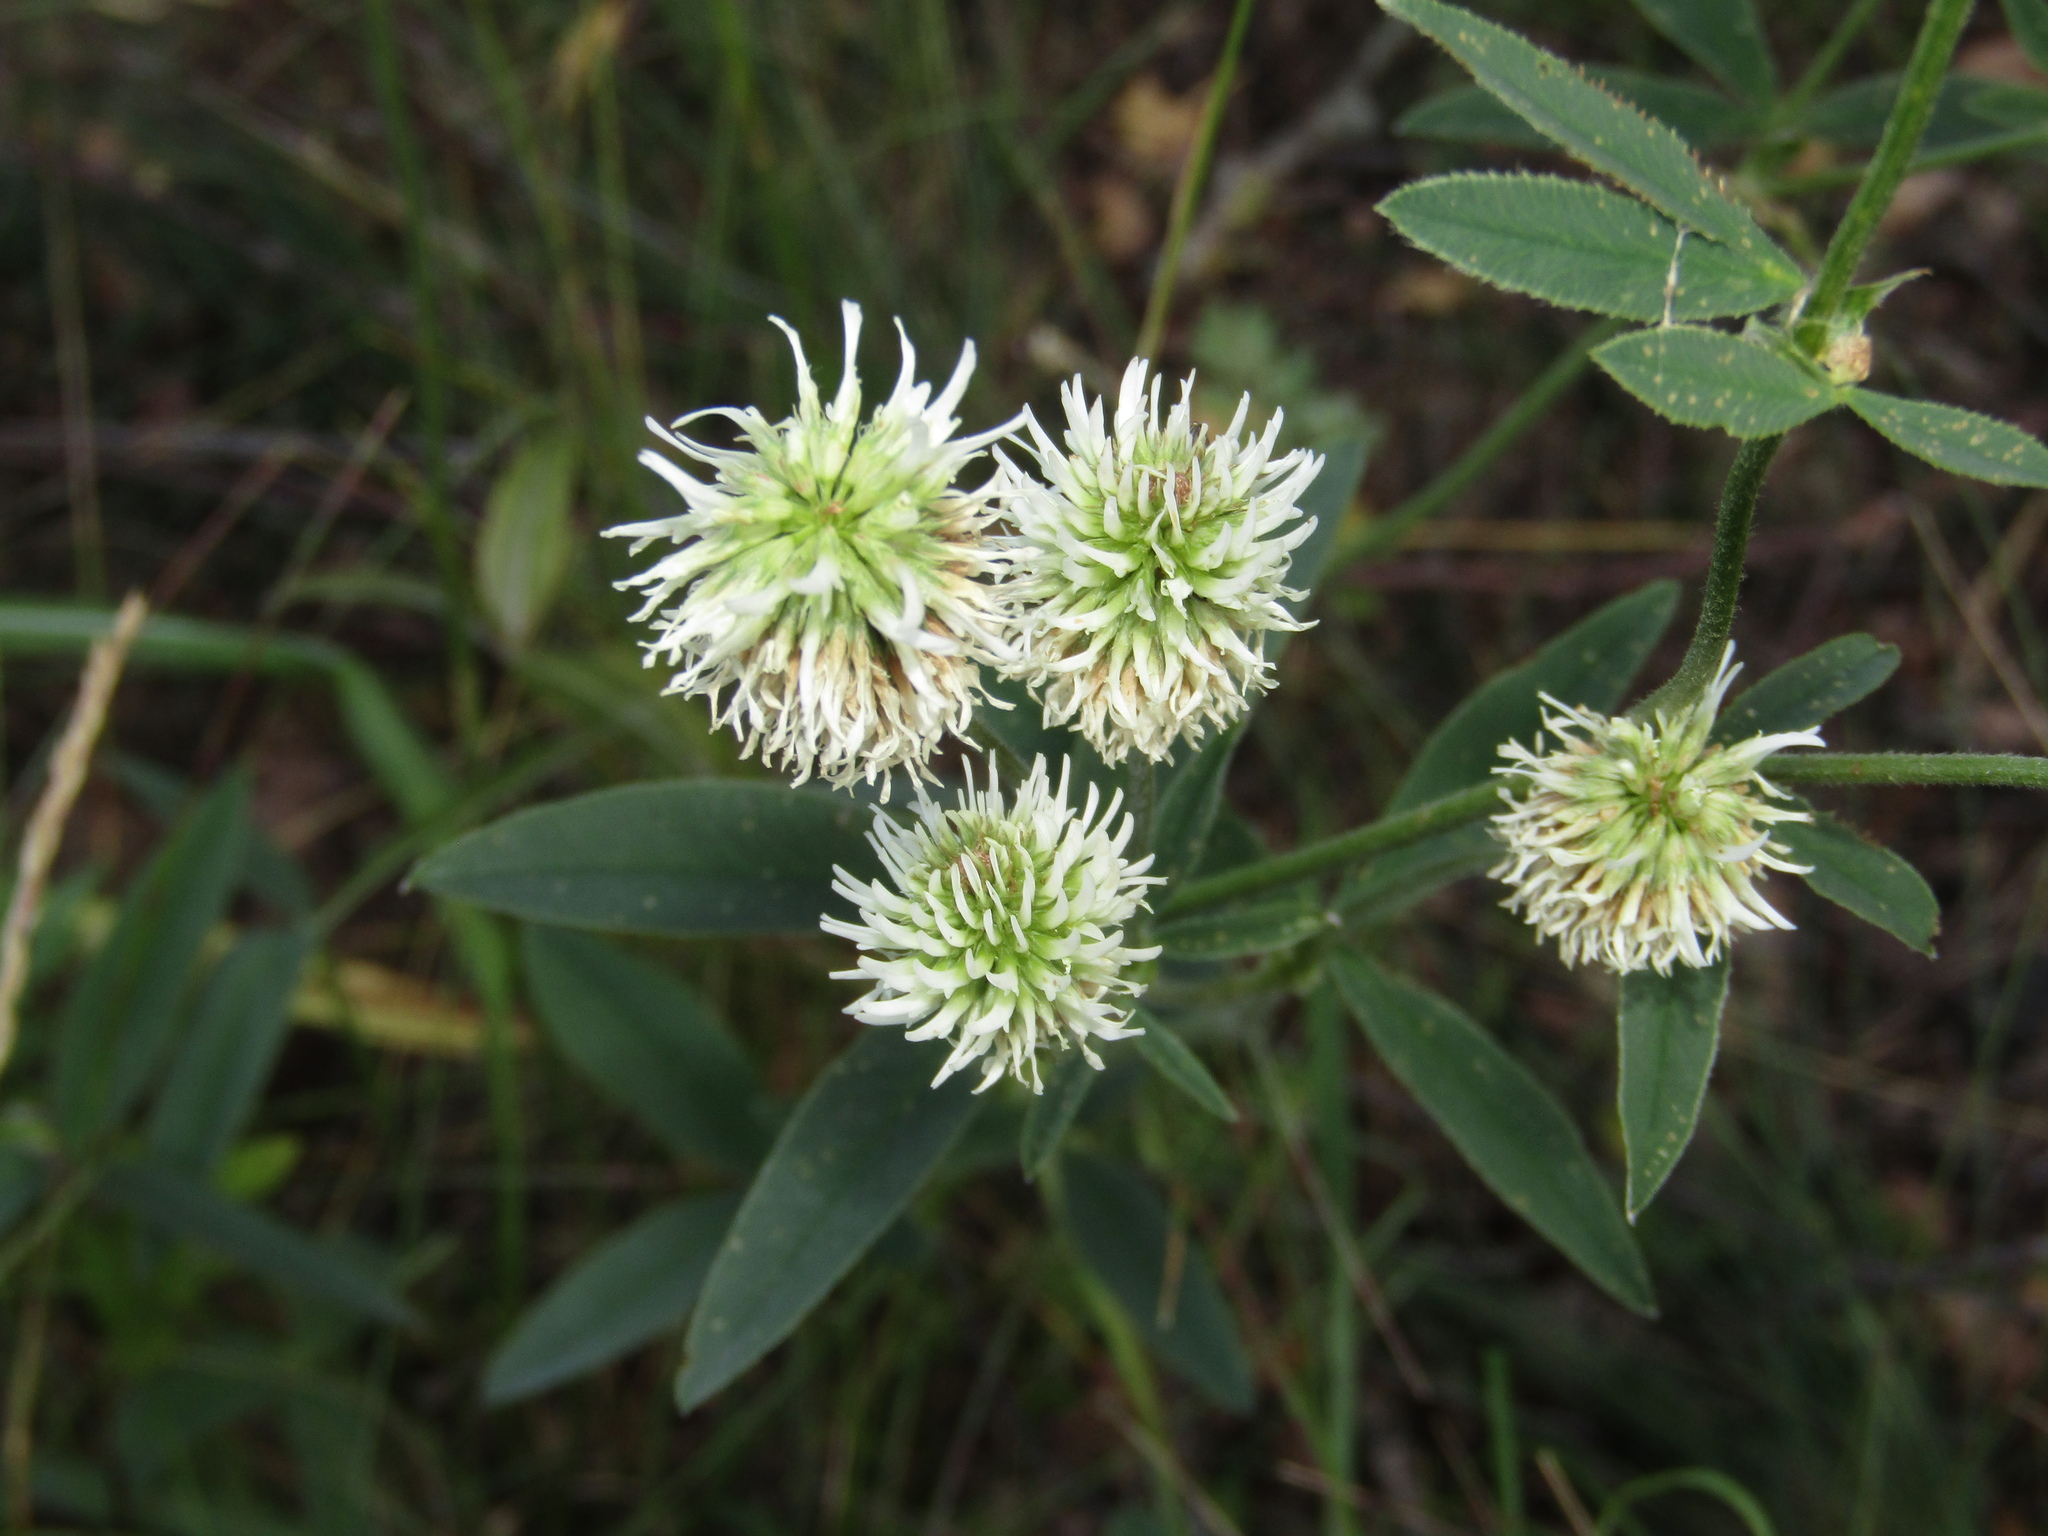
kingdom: Plantae
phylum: Tracheophyta
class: Magnoliopsida
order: Fabales
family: Fabaceae
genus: Trifolium
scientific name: Trifolium montanum
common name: Mountain clover
